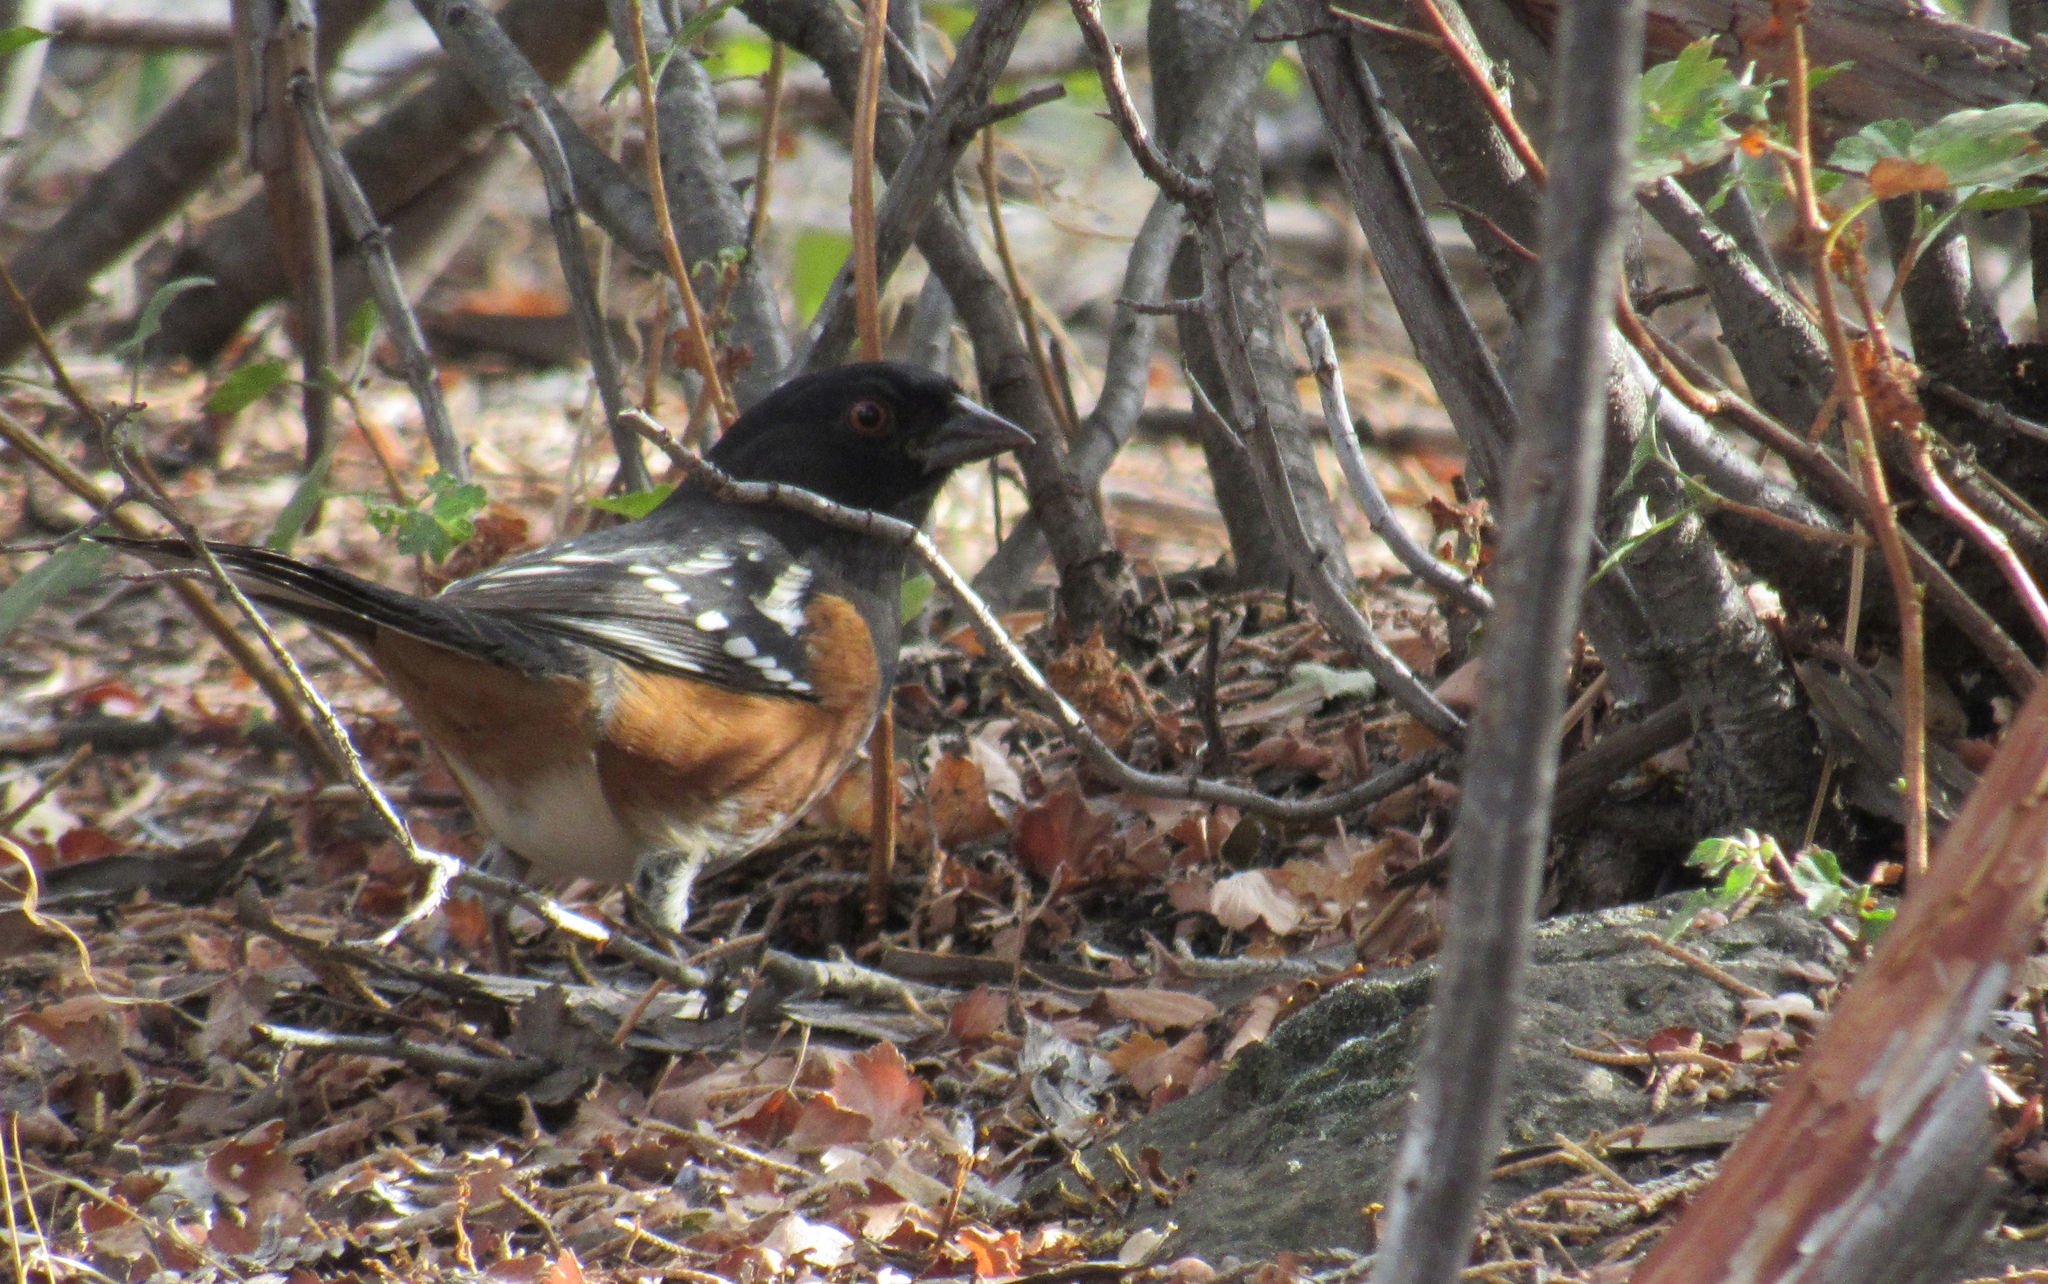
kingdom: Animalia
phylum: Chordata
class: Aves
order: Passeriformes
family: Passerellidae
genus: Pipilo
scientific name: Pipilo maculatus
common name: Spotted towhee
